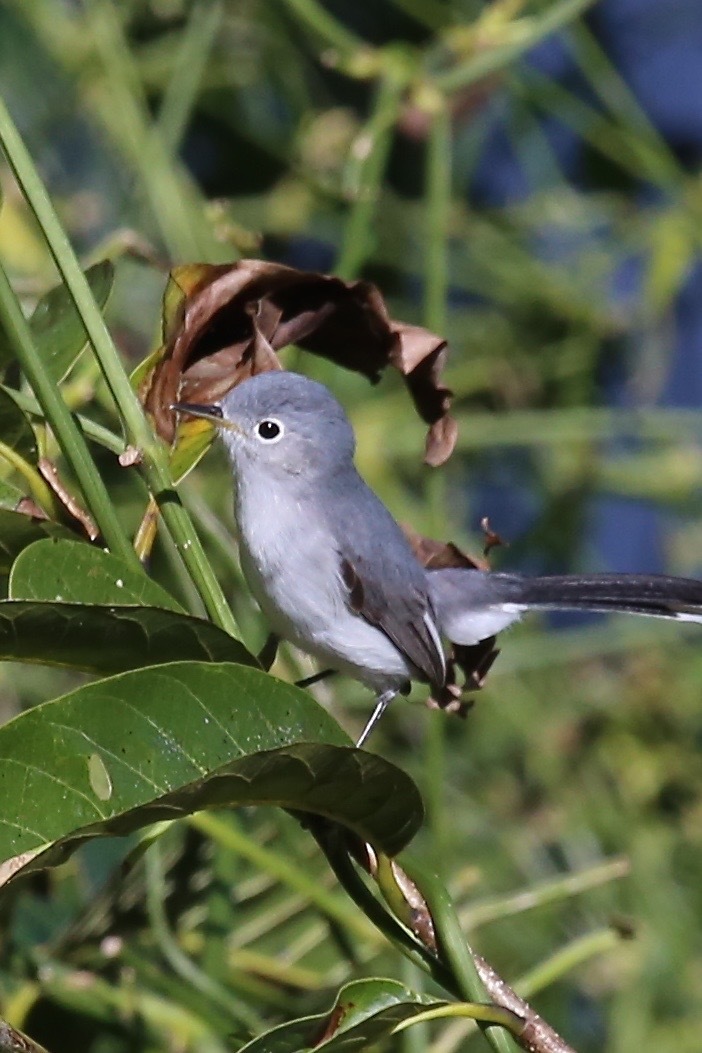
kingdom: Animalia
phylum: Chordata
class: Aves
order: Passeriformes
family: Polioptilidae
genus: Polioptila
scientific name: Polioptila caerulea
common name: Blue-gray gnatcatcher
